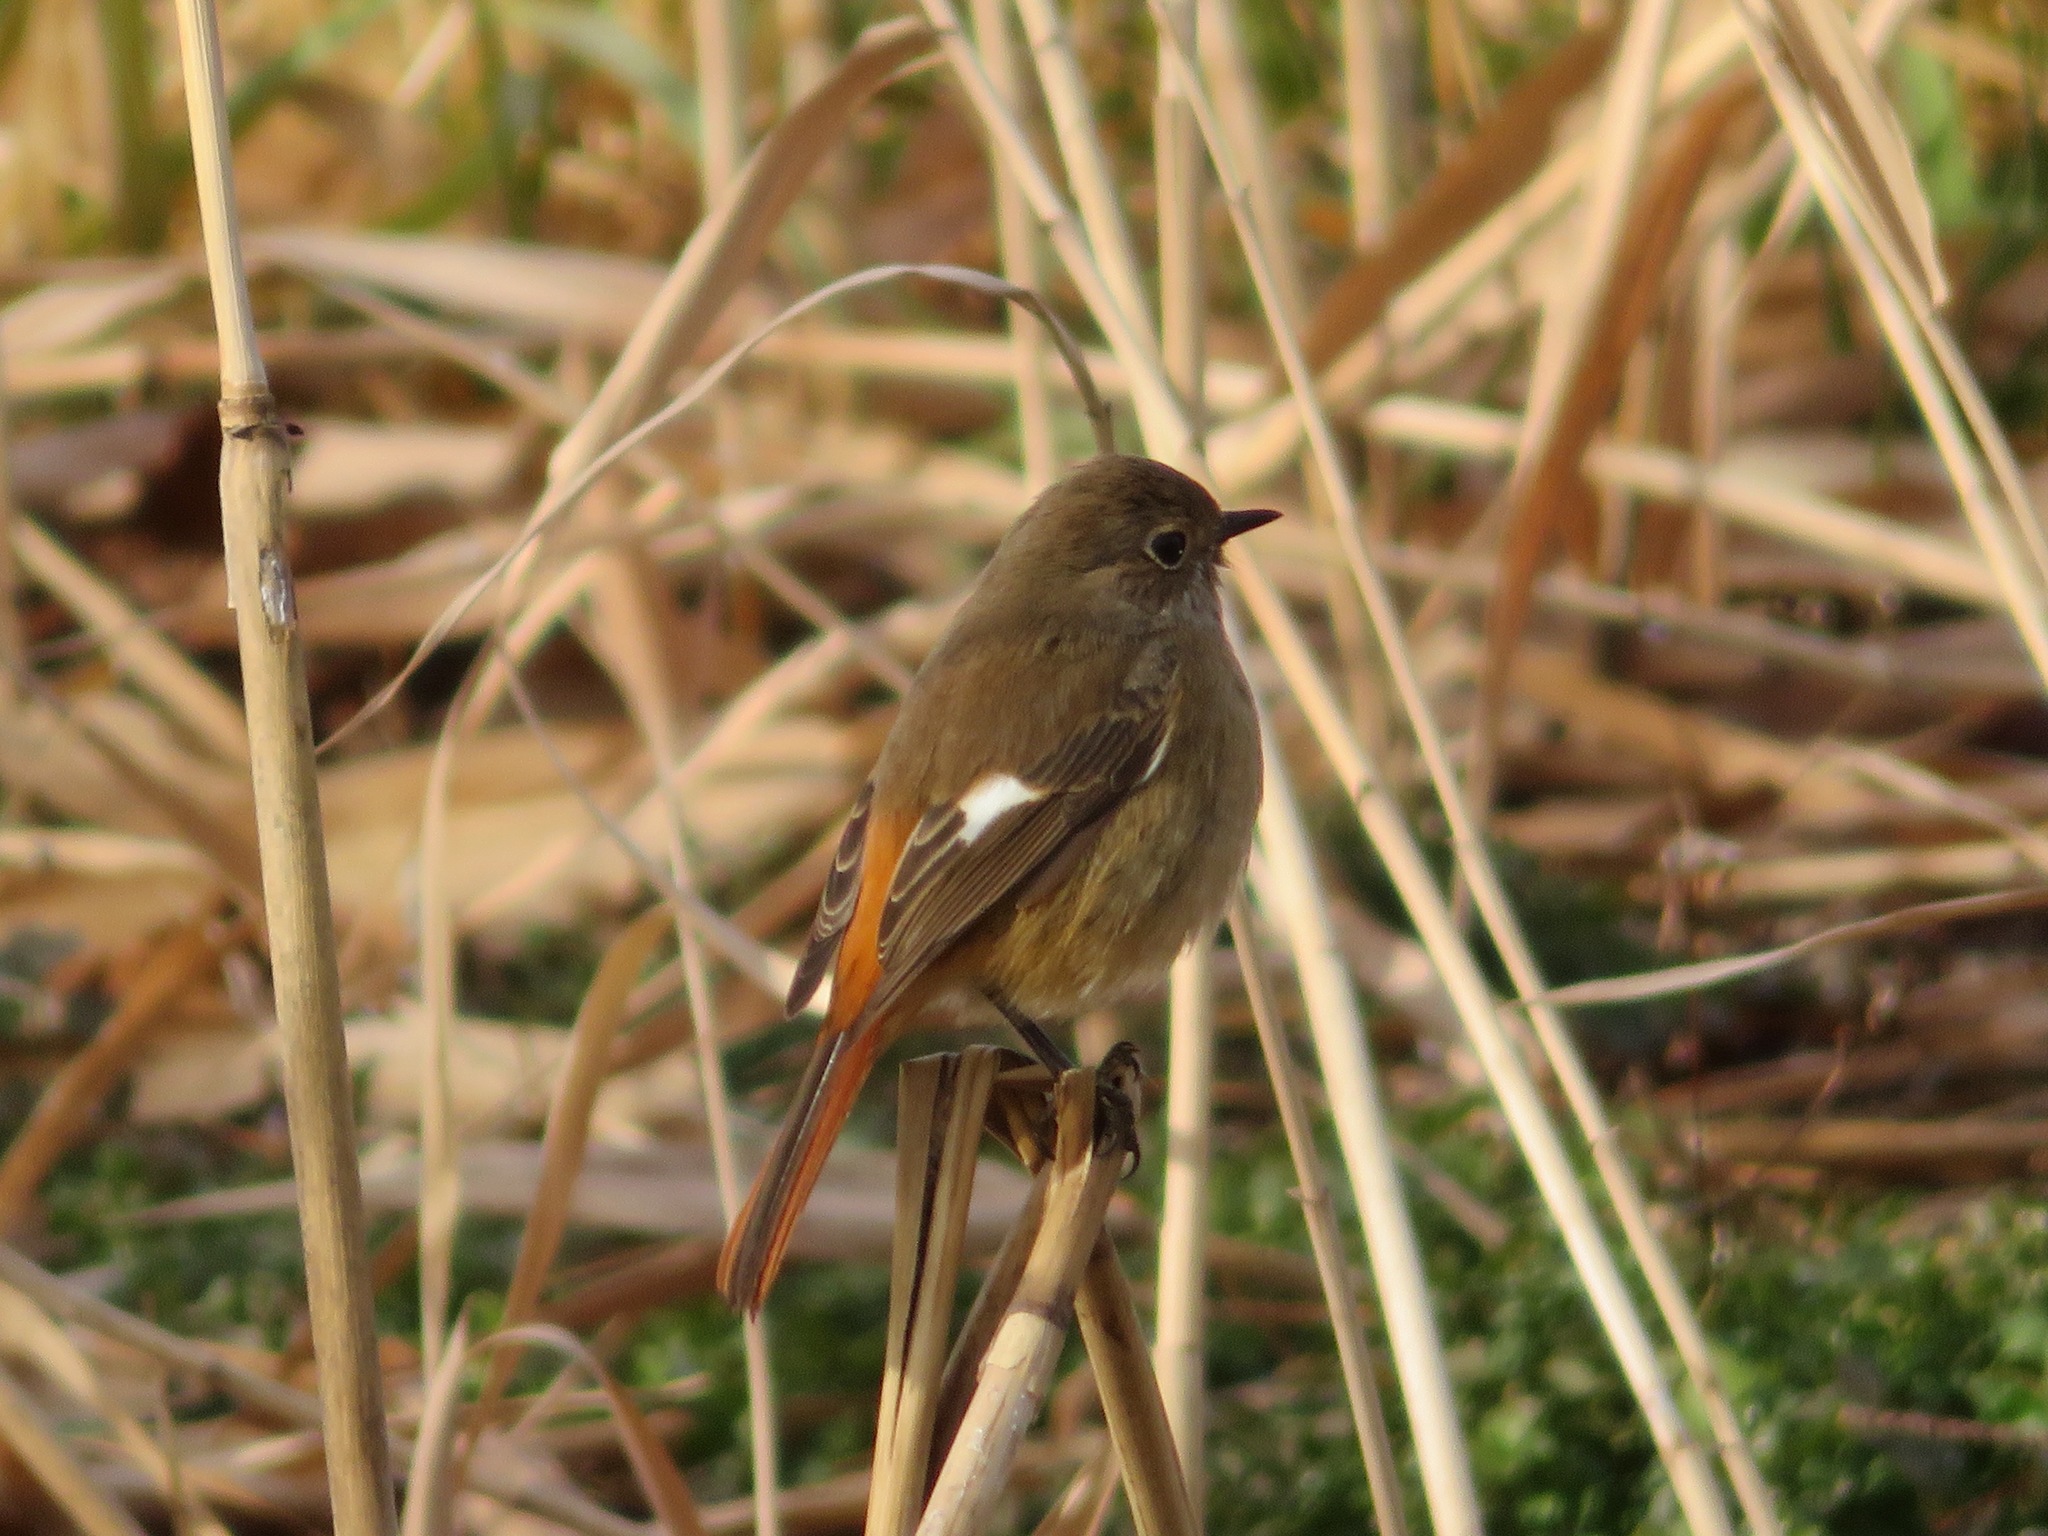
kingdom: Animalia
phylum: Chordata
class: Aves
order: Passeriformes
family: Muscicapidae
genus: Phoenicurus
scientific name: Phoenicurus auroreus
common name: Daurian redstart
